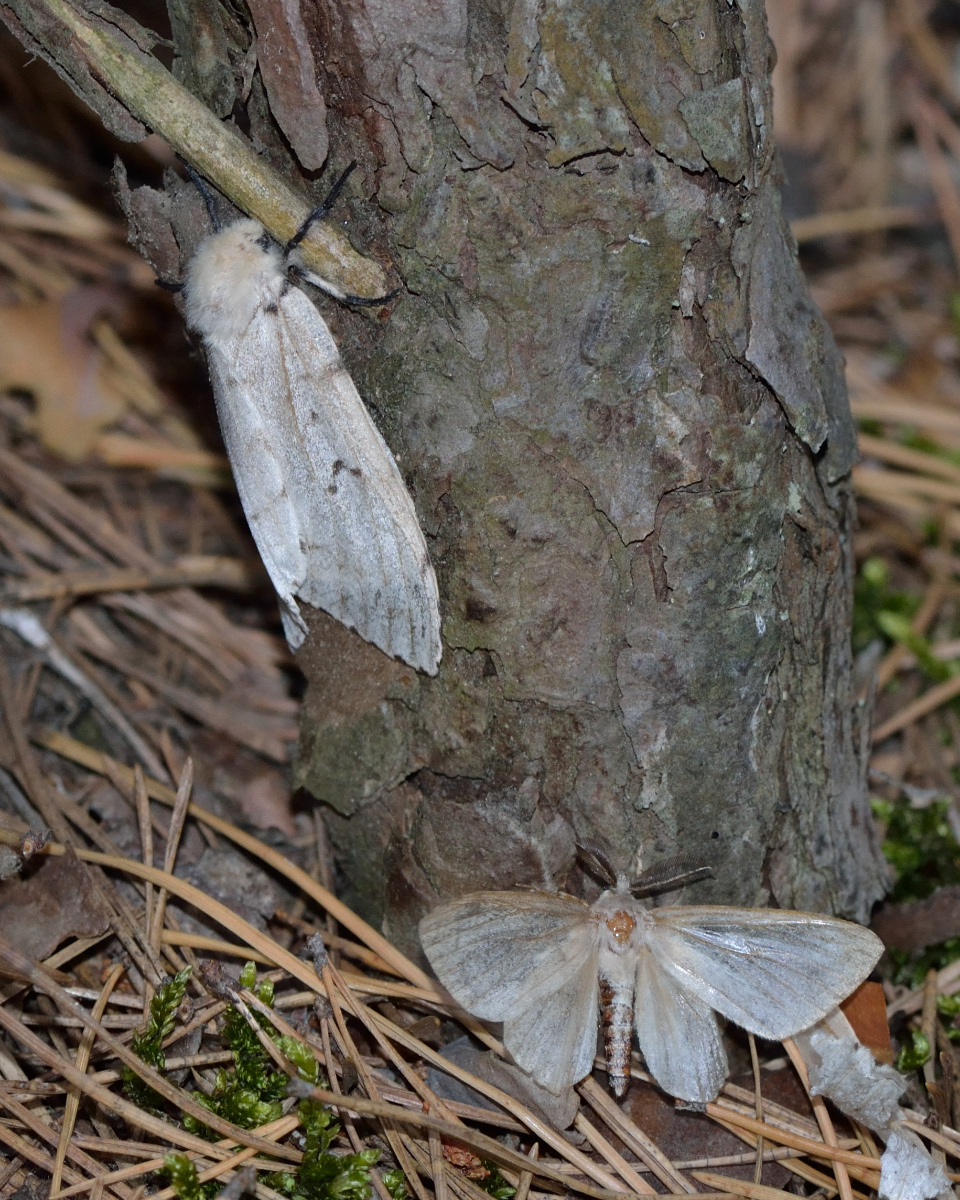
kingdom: Animalia
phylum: Arthropoda
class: Insecta
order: Lepidoptera
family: Erebidae
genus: Lymantria
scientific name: Lymantria dispar
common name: Gypsy moth
